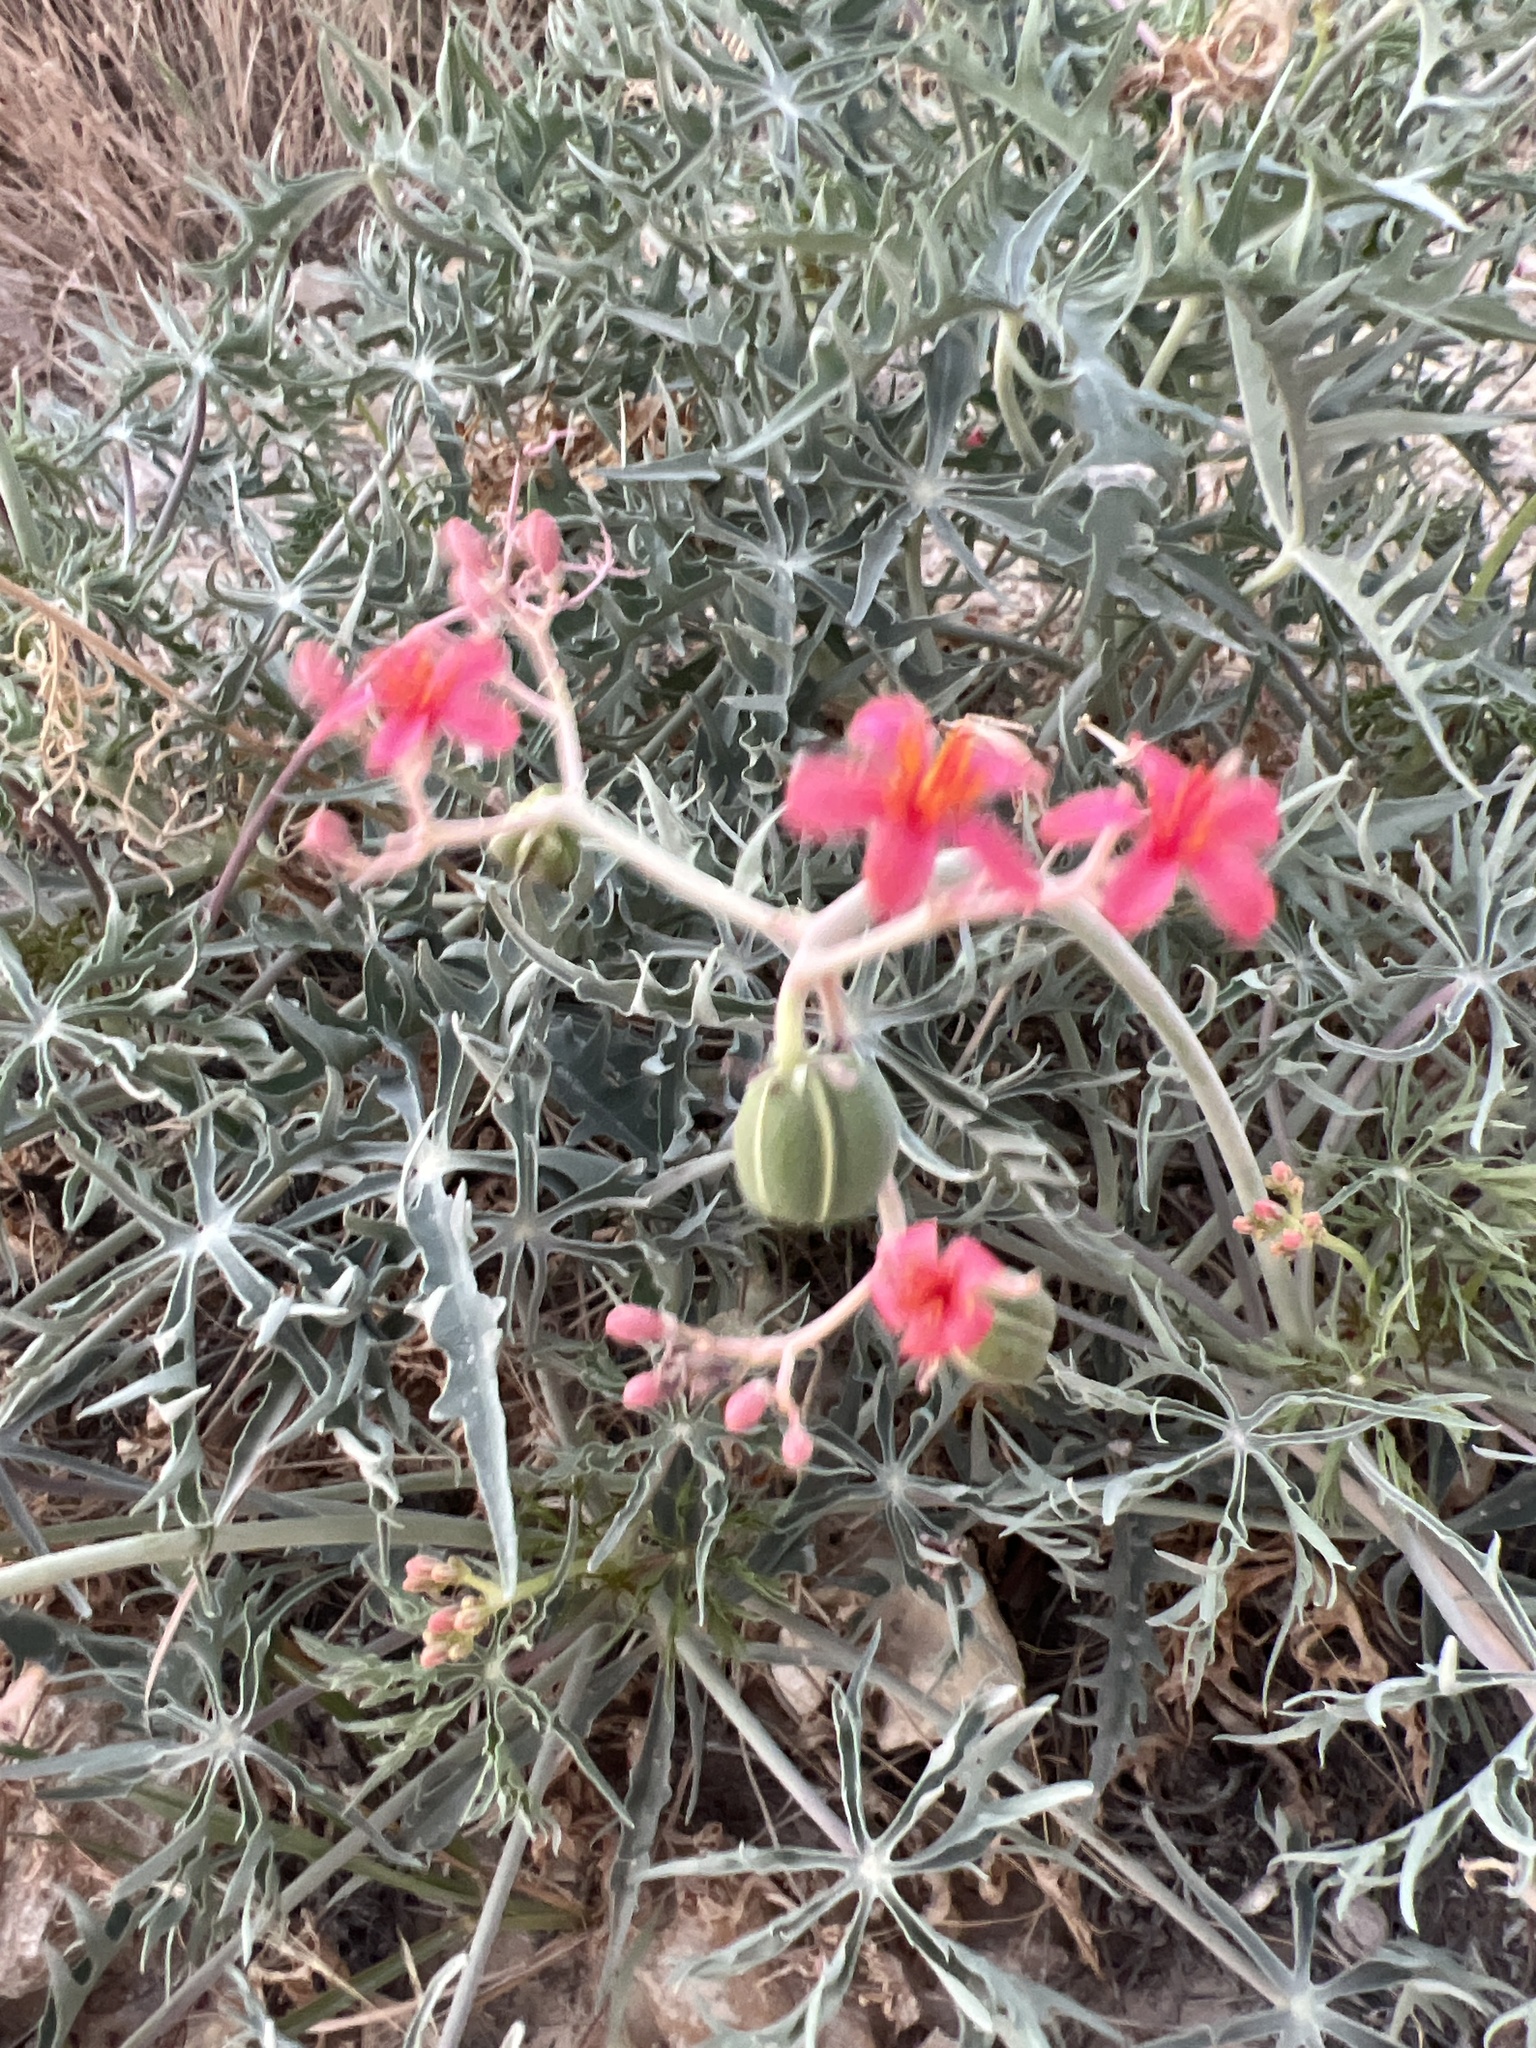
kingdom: Plantae
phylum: Tracheophyta
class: Magnoliopsida
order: Malpighiales
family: Euphorbiaceae
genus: Jatropha
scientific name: Jatropha cathartica
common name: Berlander's nettlespurge
